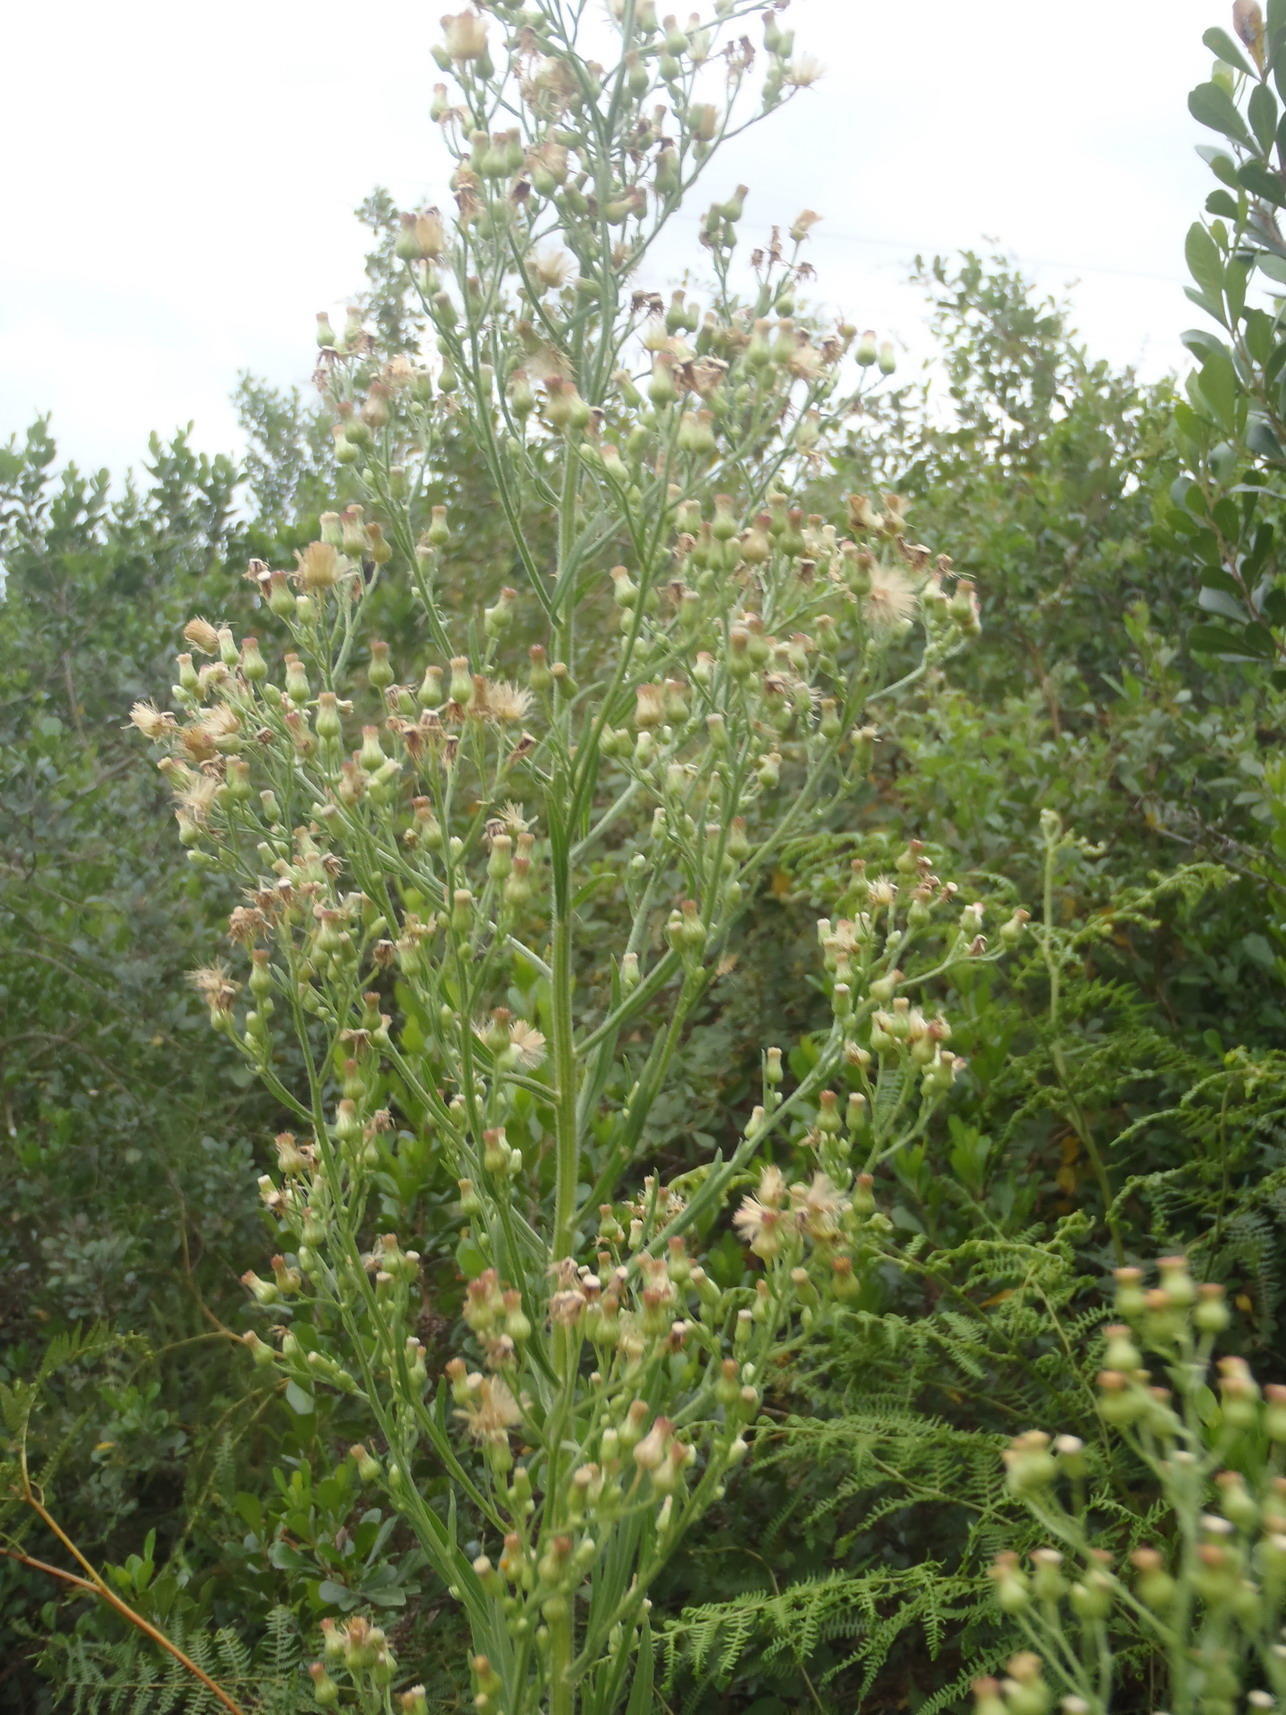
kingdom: Plantae
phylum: Tracheophyta
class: Magnoliopsida
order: Asterales
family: Asteraceae
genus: Erigeron
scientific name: Erigeron sumatrensis
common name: Daisy
